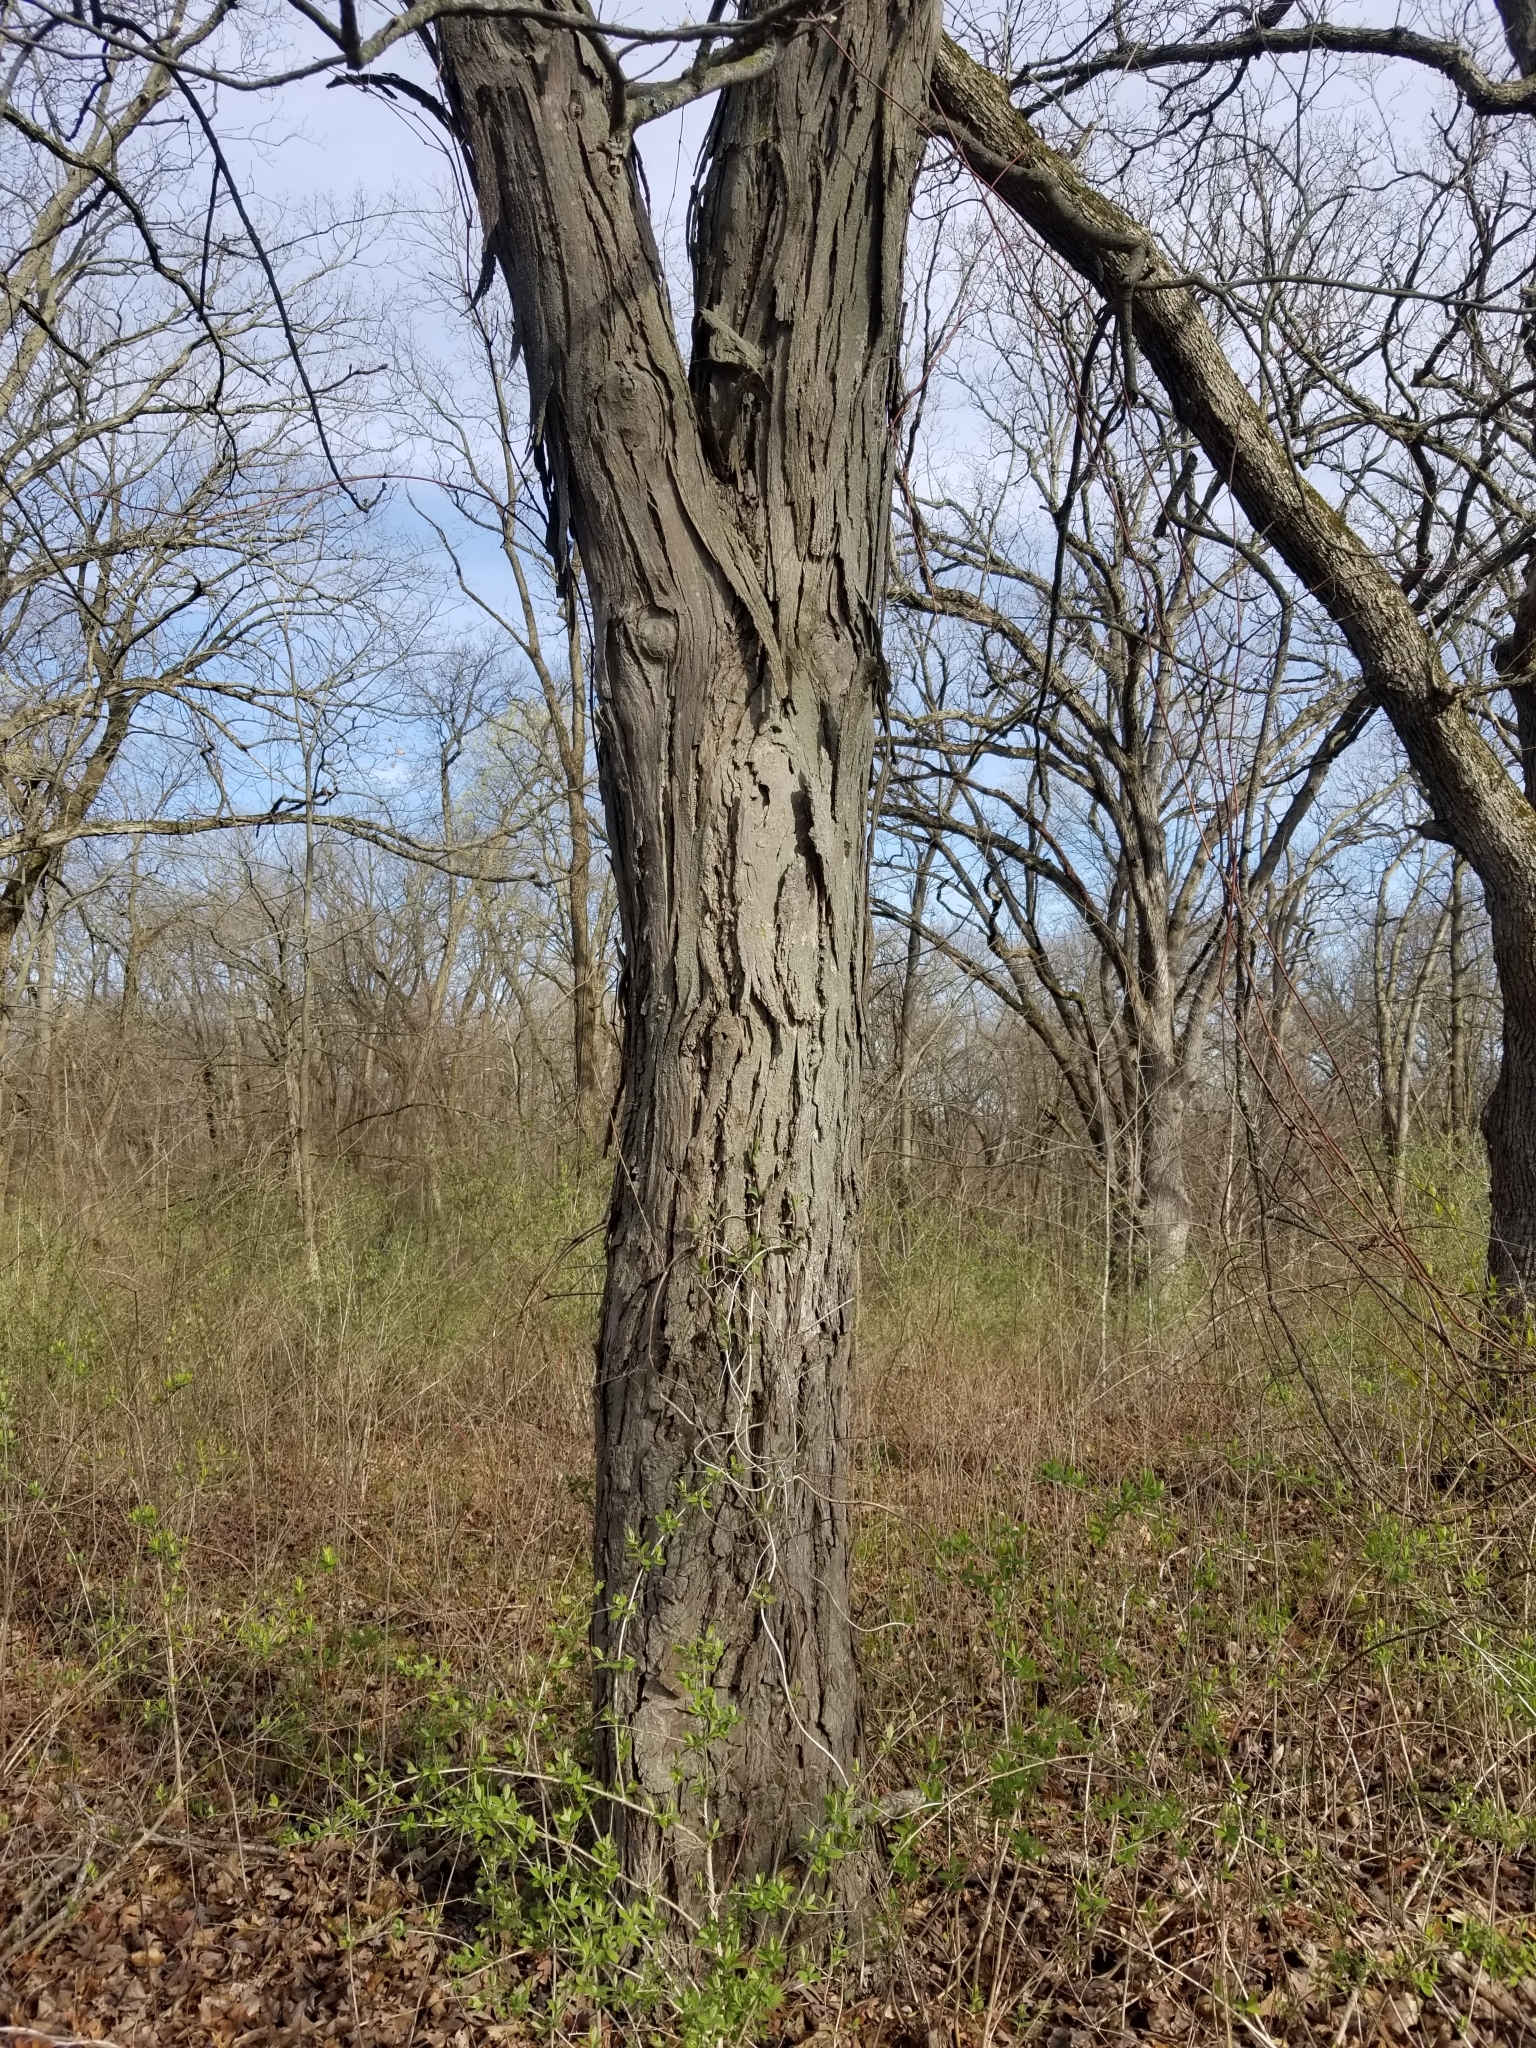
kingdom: Plantae
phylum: Tracheophyta
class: Magnoliopsida
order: Fagales
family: Juglandaceae
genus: Carya
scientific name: Carya ovata
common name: Shagbark hickory
